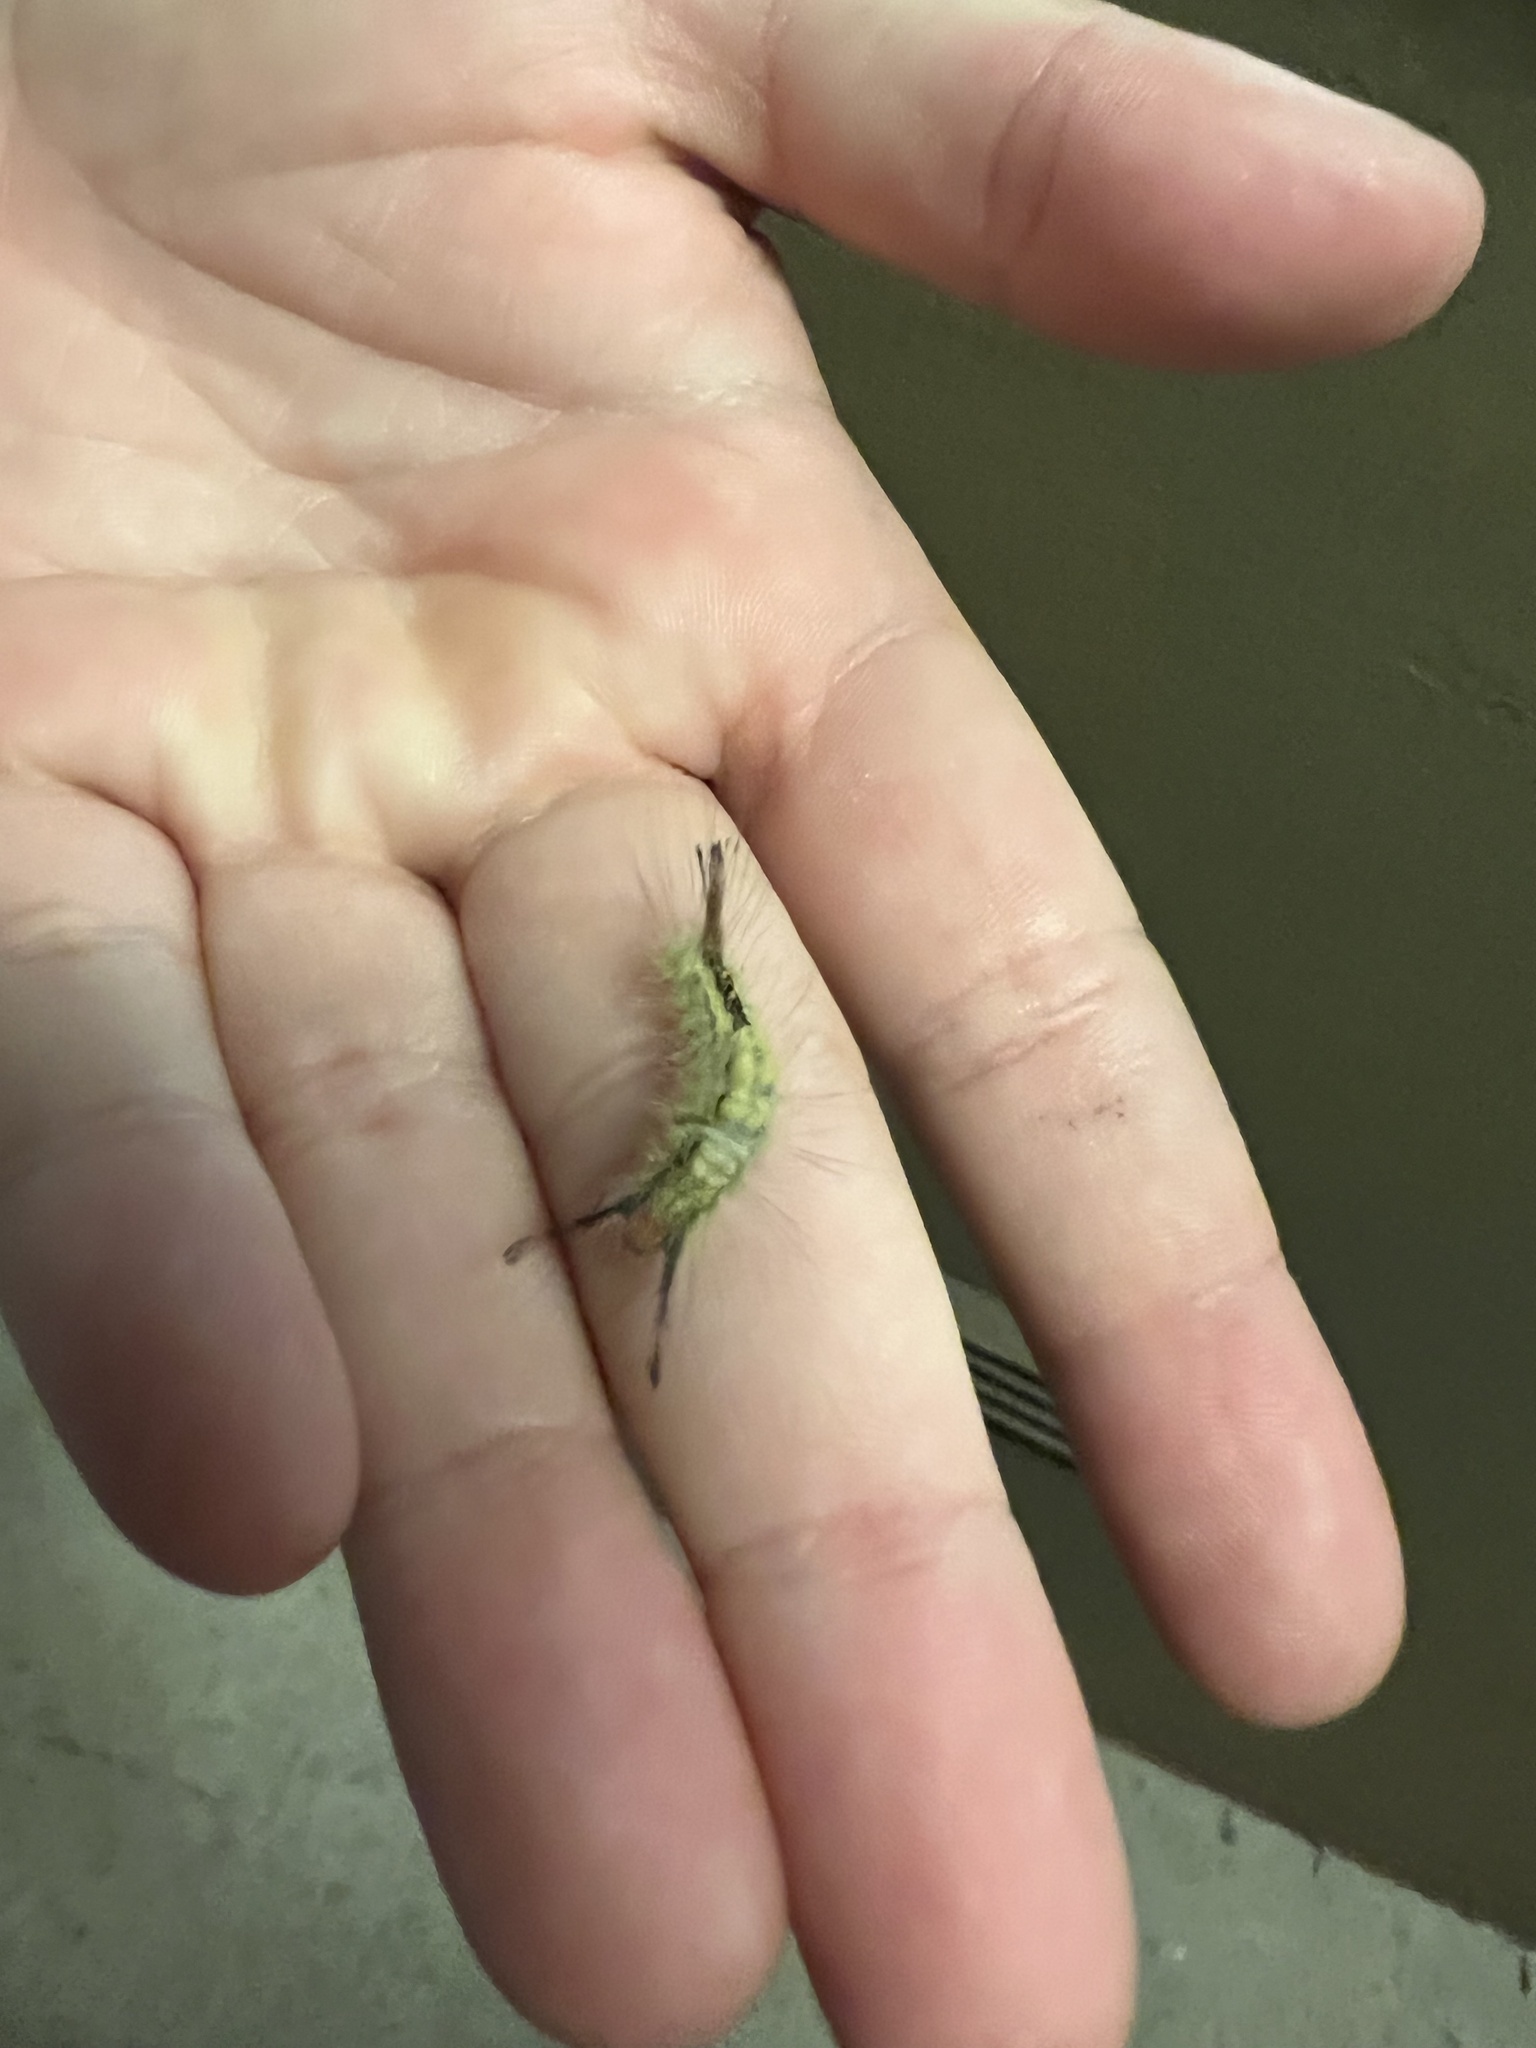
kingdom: Animalia
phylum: Arthropoda
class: Insecta
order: Lepidoptera
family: Erebidae
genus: Orgyia
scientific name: Orgyia leucostigma
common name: White-marked tussock moth
